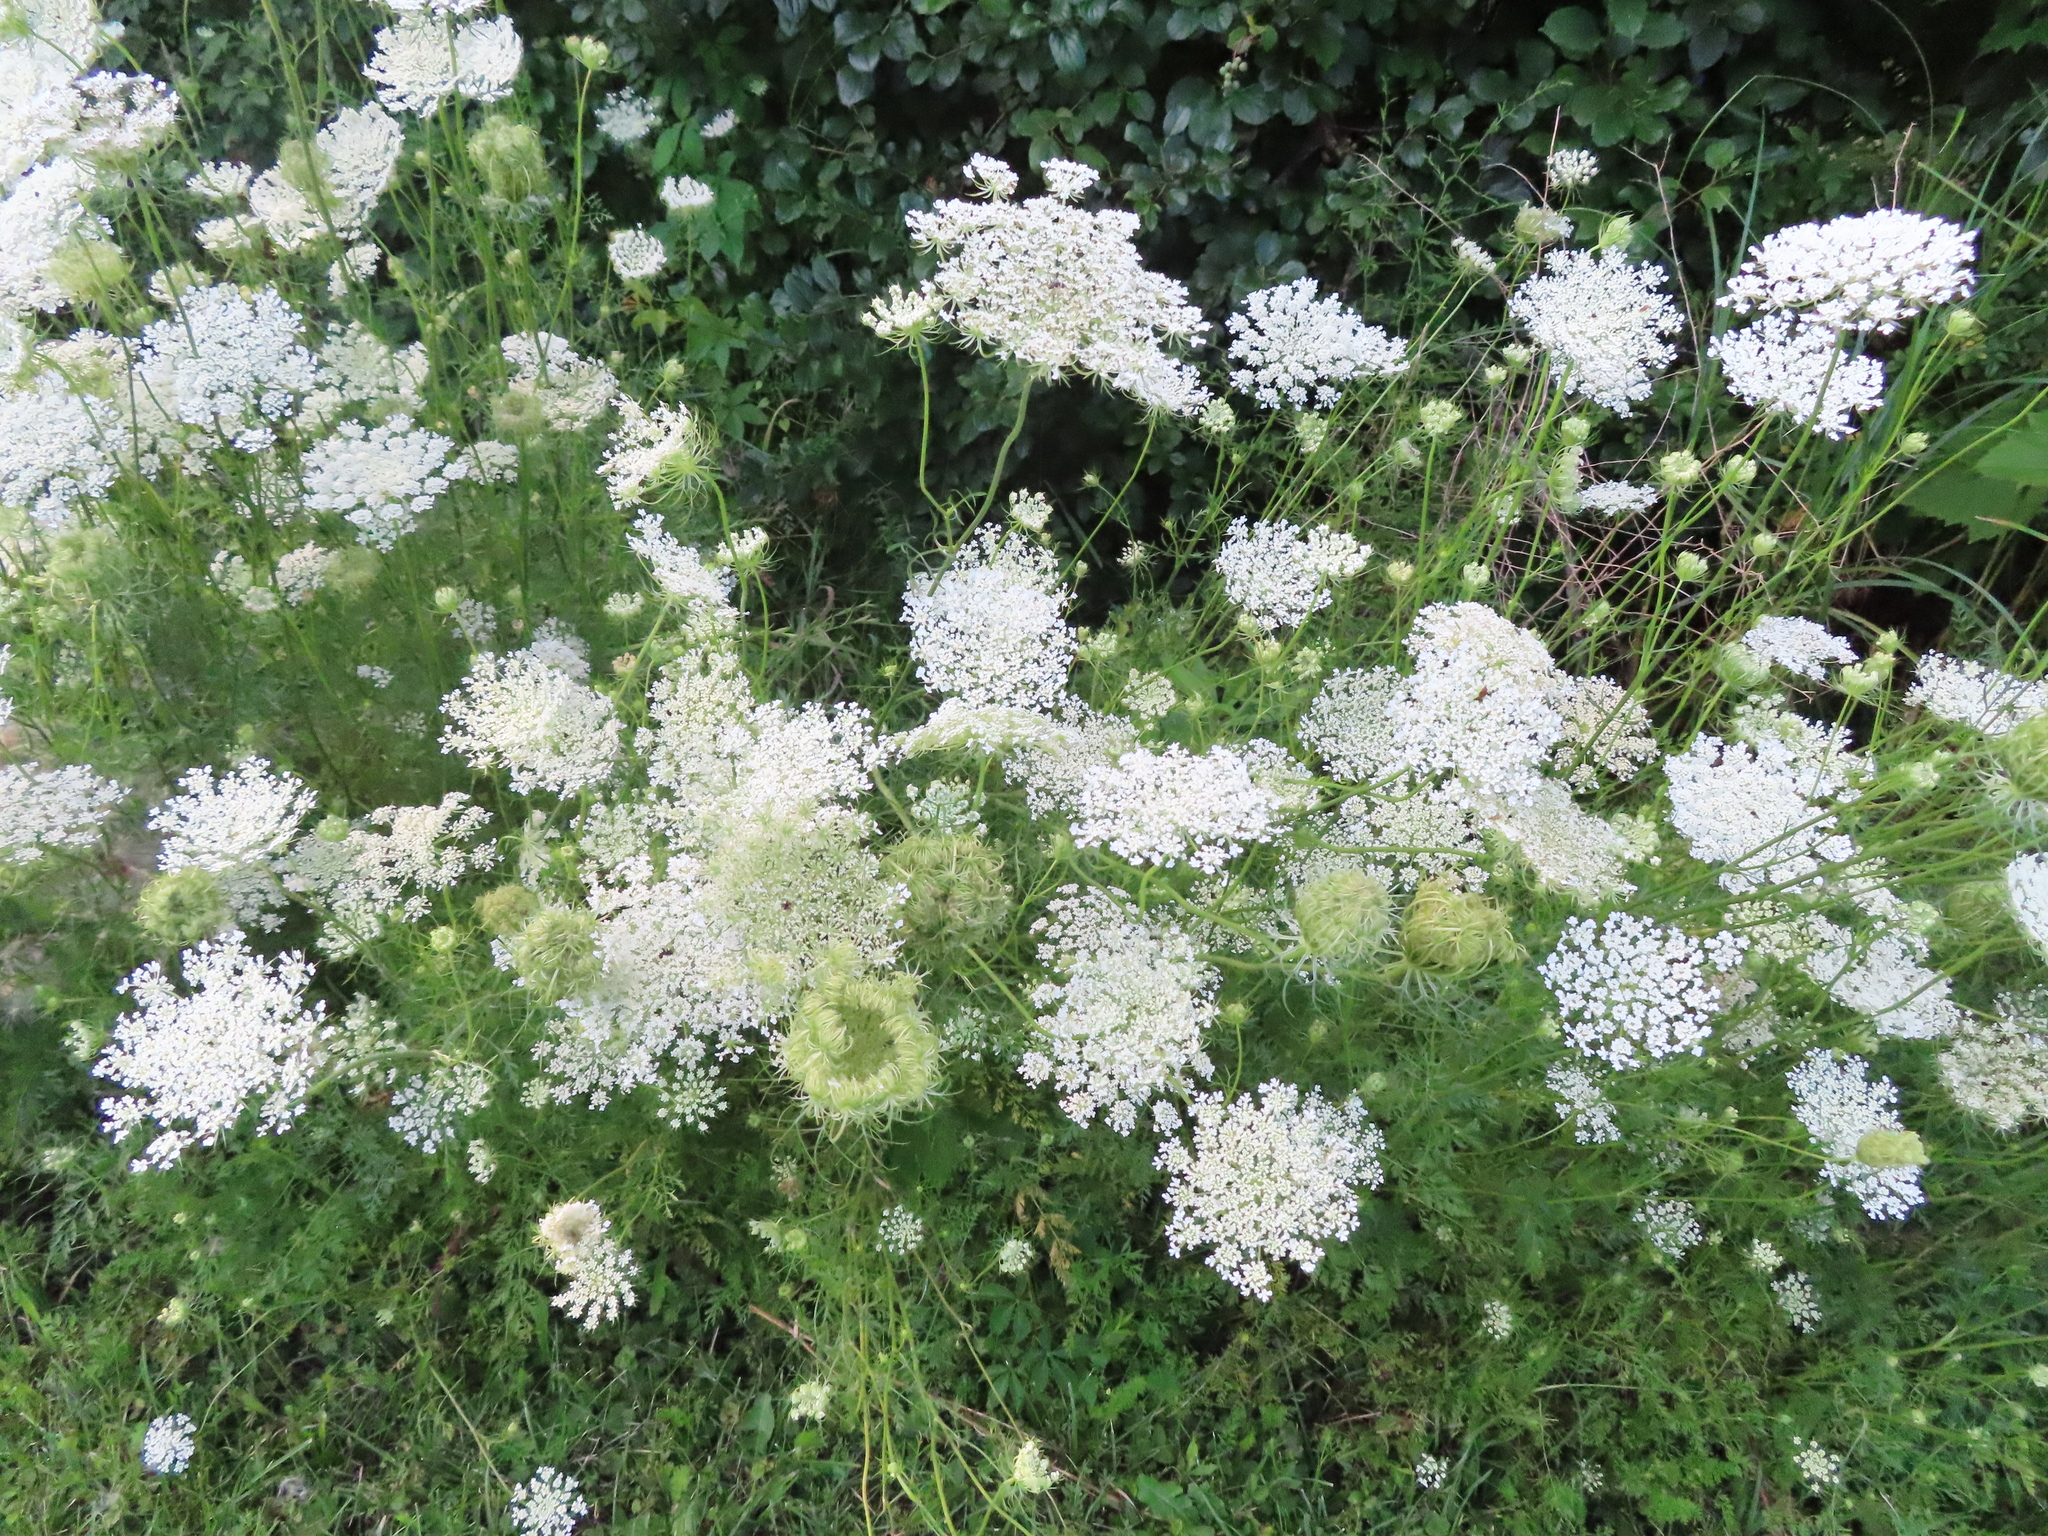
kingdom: Plantae
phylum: Tracheophyta
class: Magnoliopsida
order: Apiales
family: Apiaceae
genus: Daucus
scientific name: Daucus carota
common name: Wild carrot
